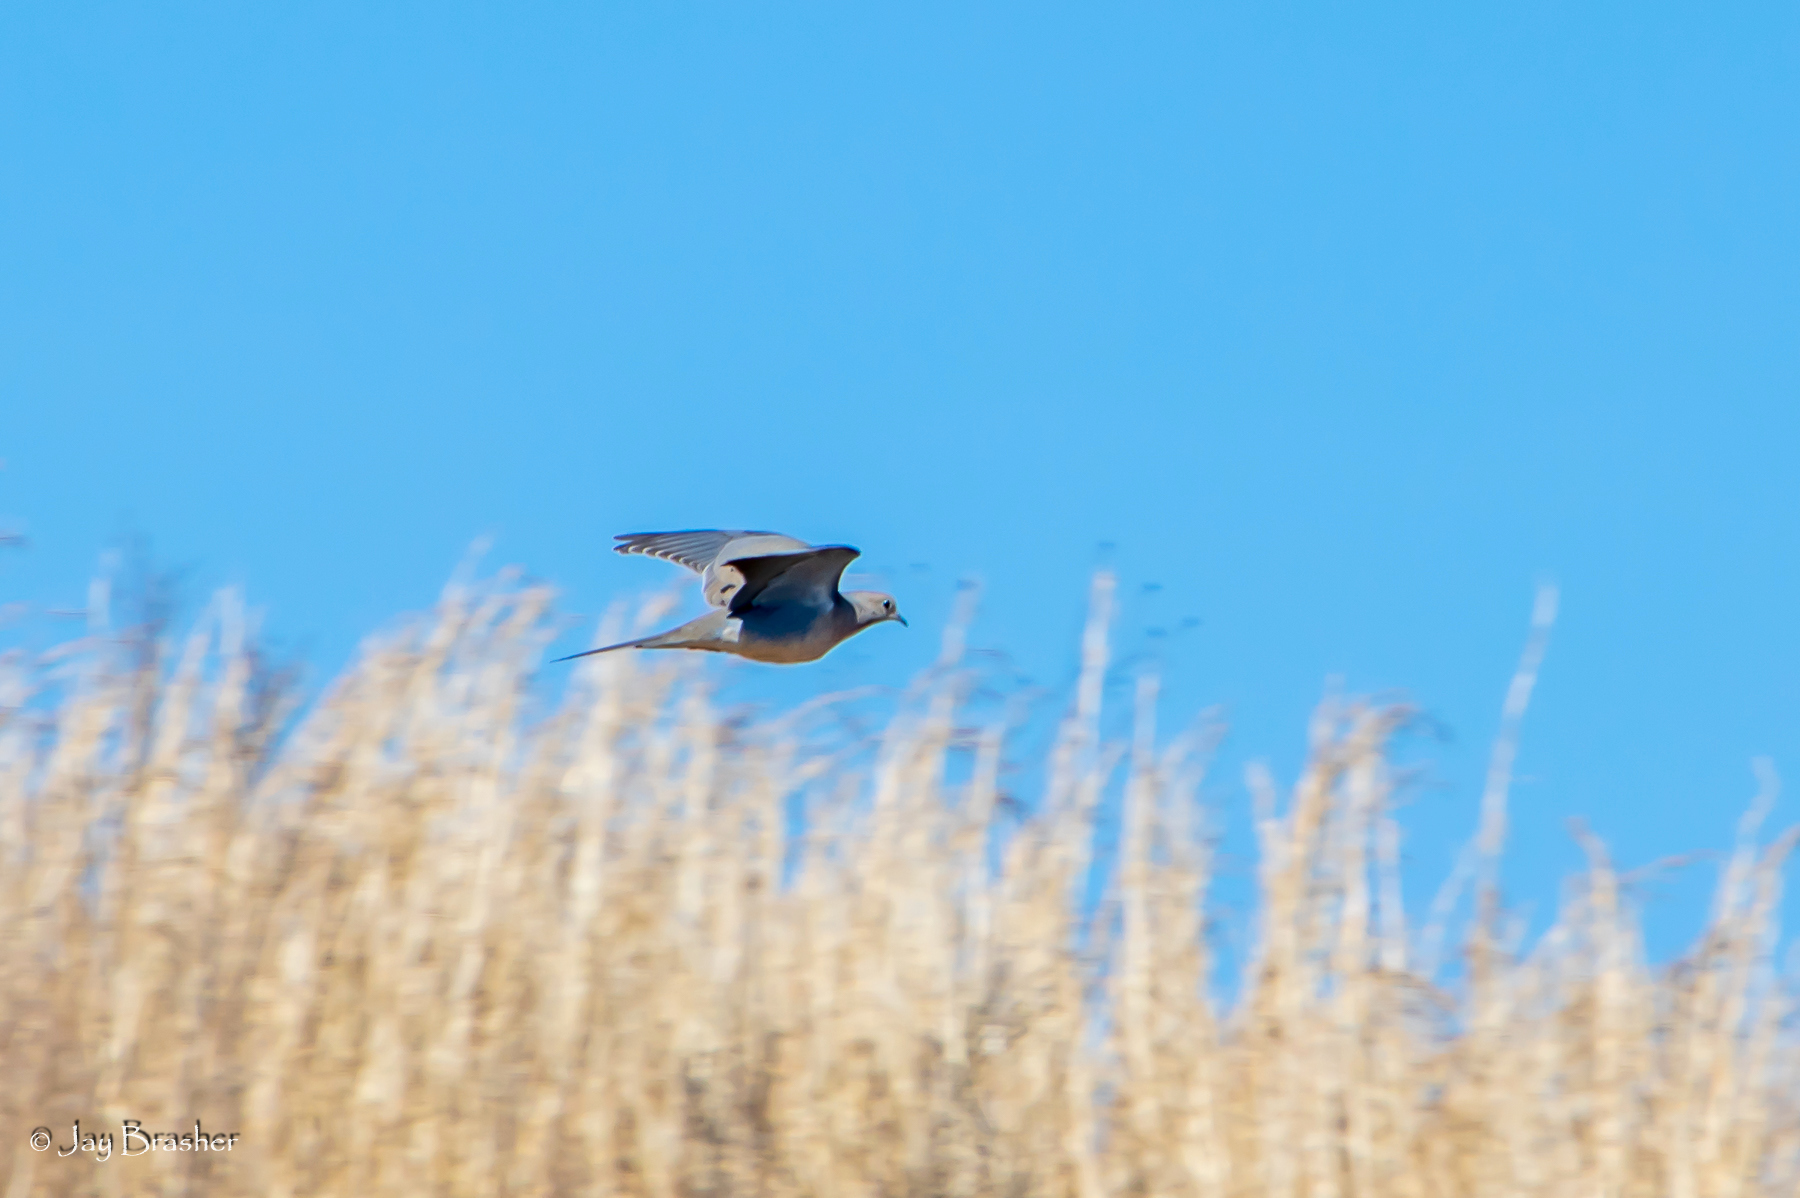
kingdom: Animalia
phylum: Chordata
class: Aves
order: Columbiformes
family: Columbidae
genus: Zenaida
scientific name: Zenaida macroura
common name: Mourning dove
